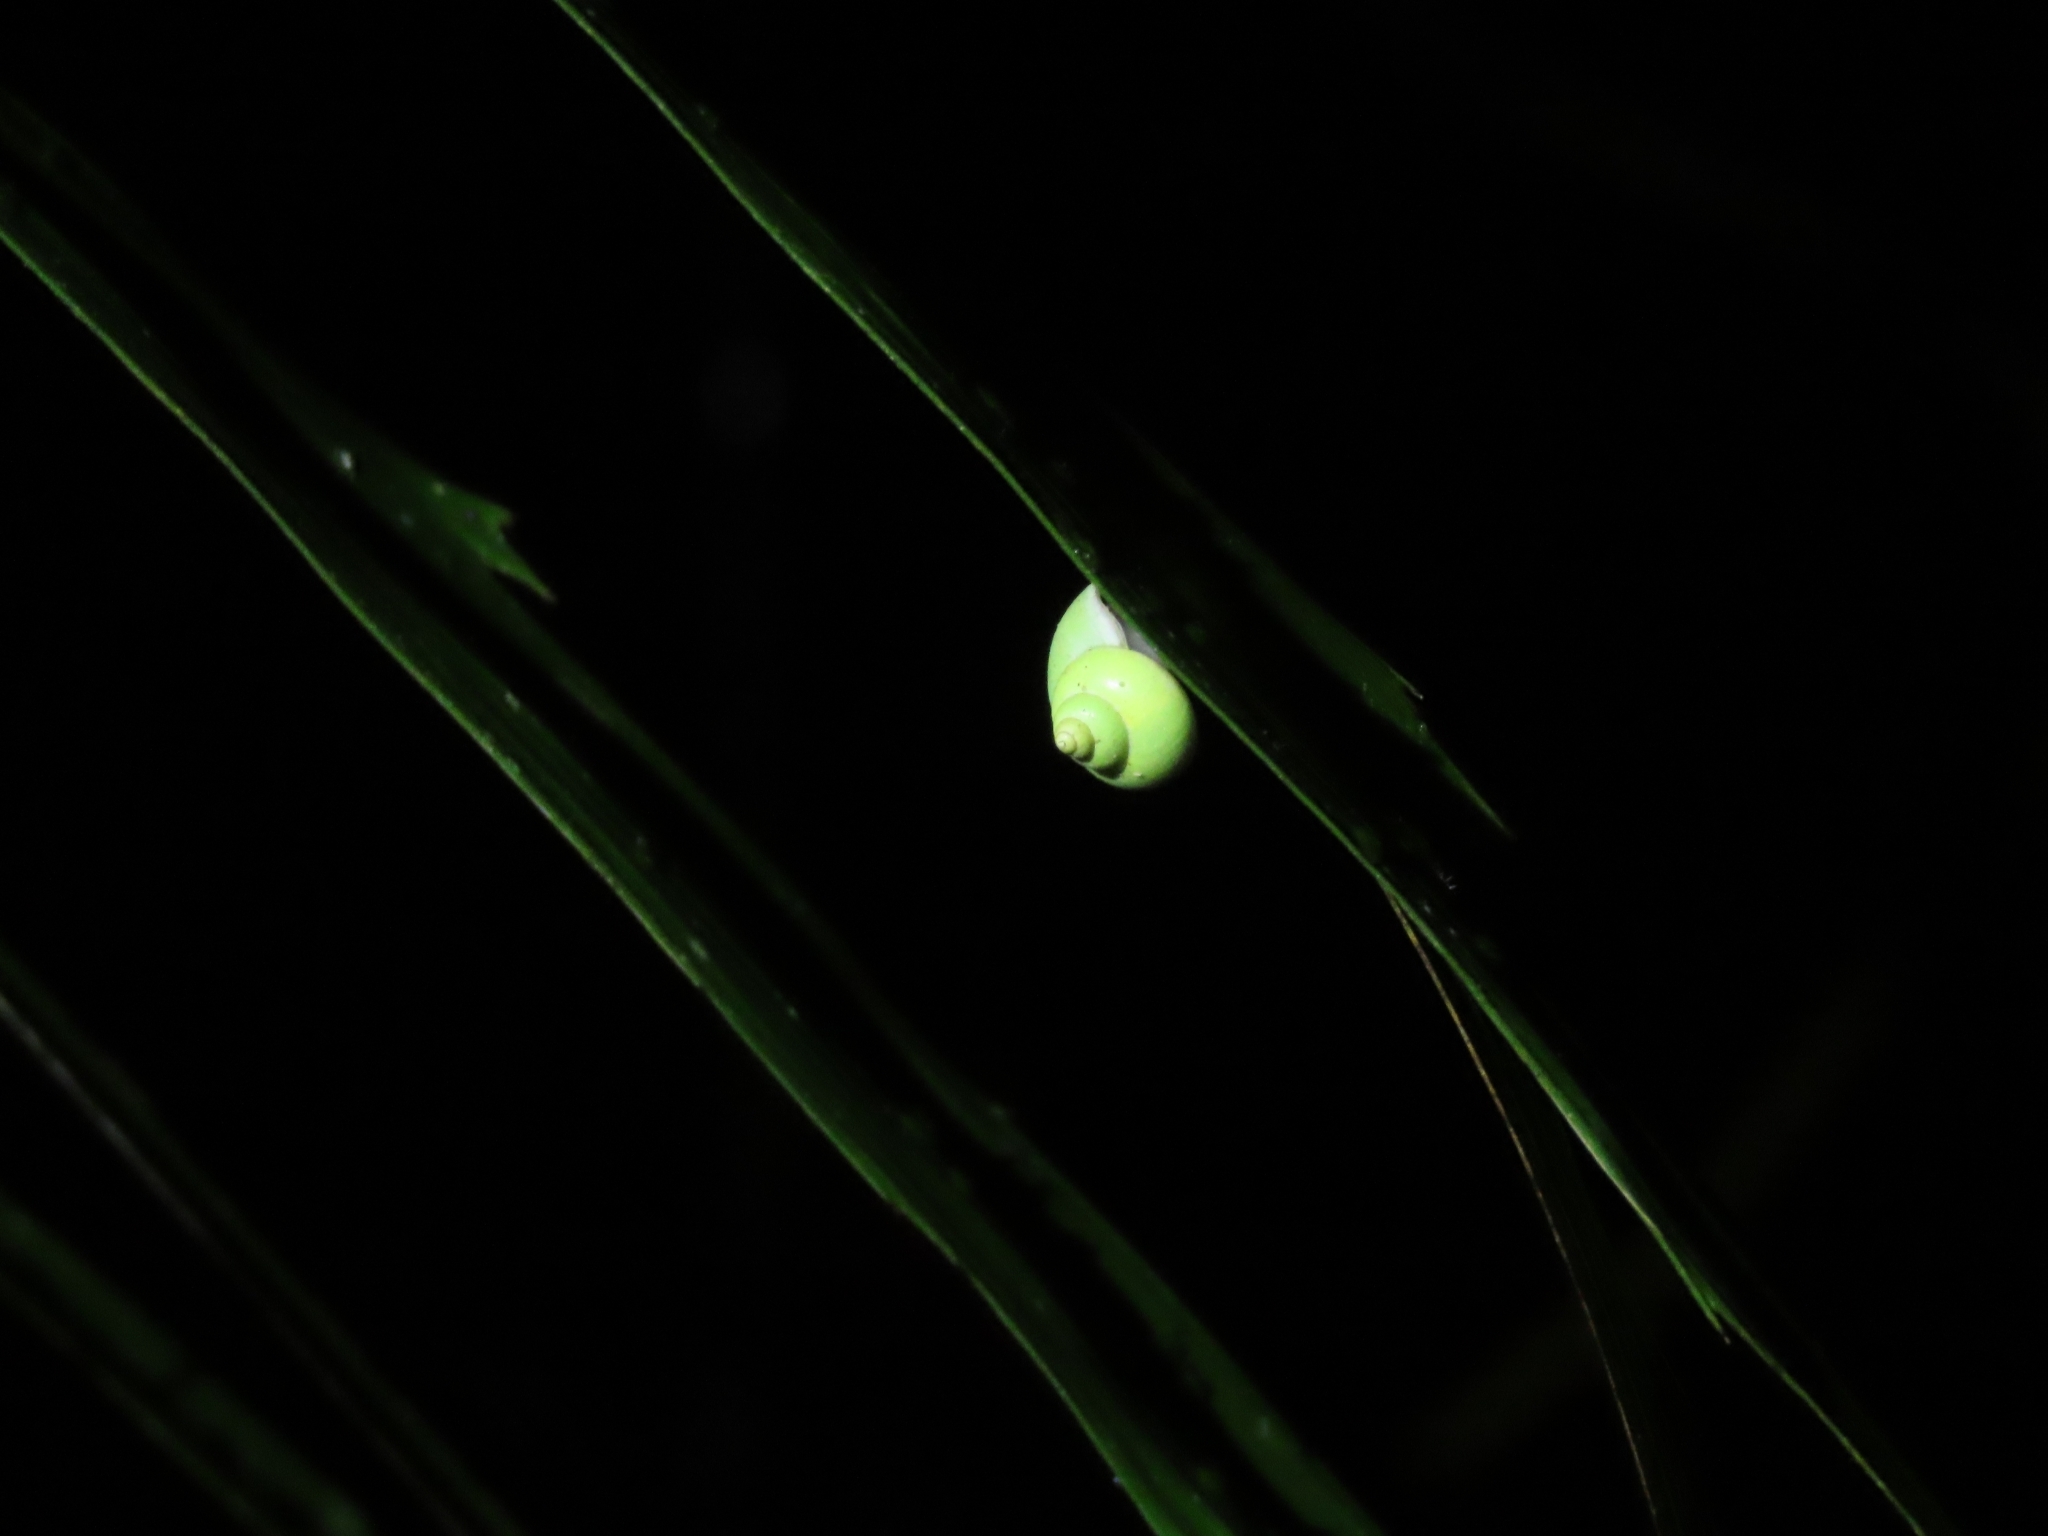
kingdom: Animalia
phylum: Mollusca
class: Gastropoda
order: Architaenioglossa
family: Cyclophoridae
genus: Leptopoma
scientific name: Leptopoma nitidum
